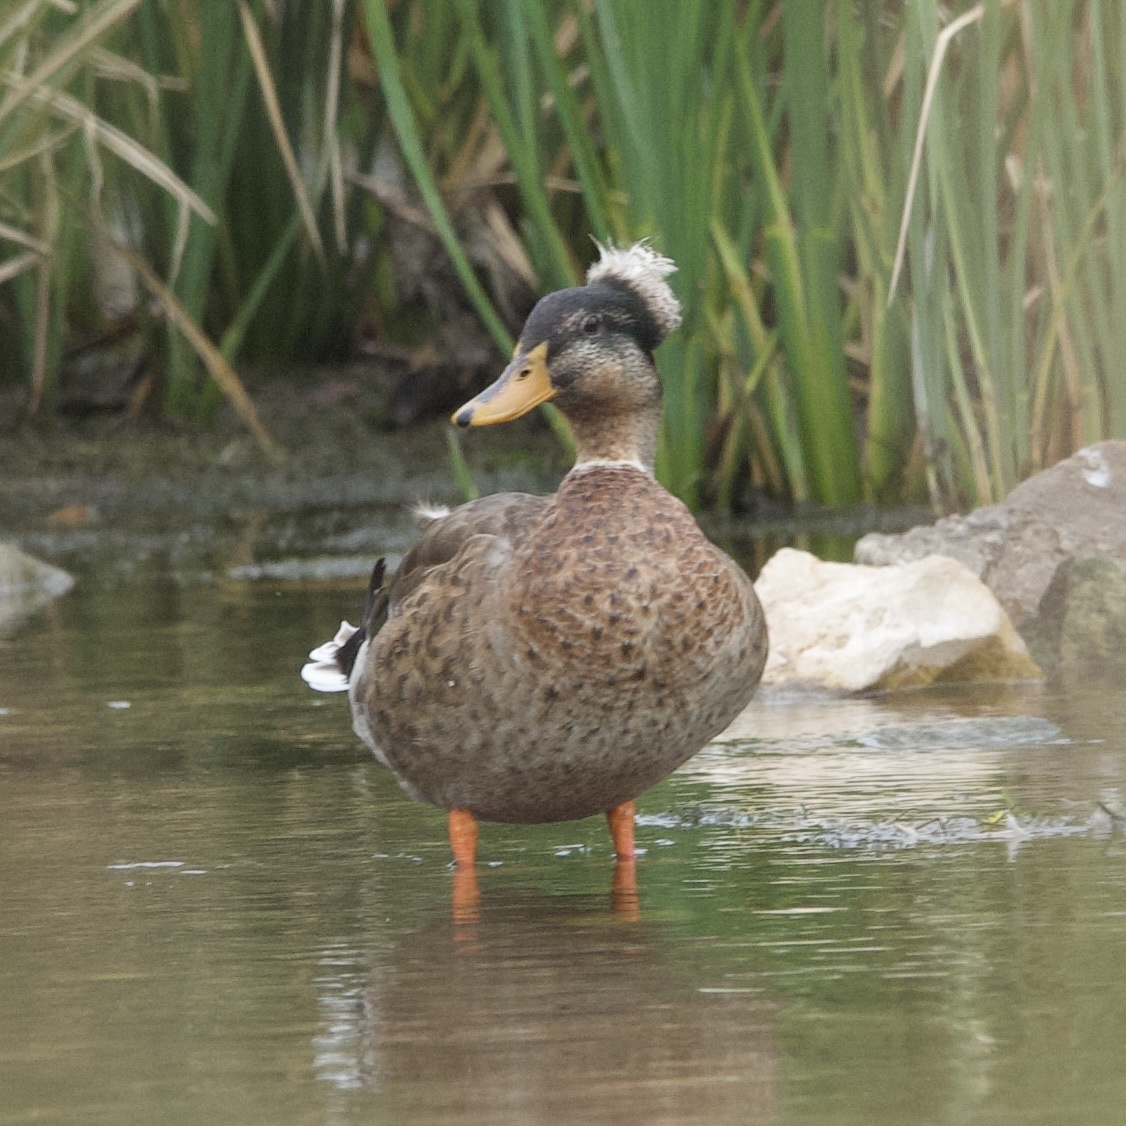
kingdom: Animalia
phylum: Chordata
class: Aves
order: Anseriformes
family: Anatidae
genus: Anas
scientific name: Anas platyrhynchos
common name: Mallard
